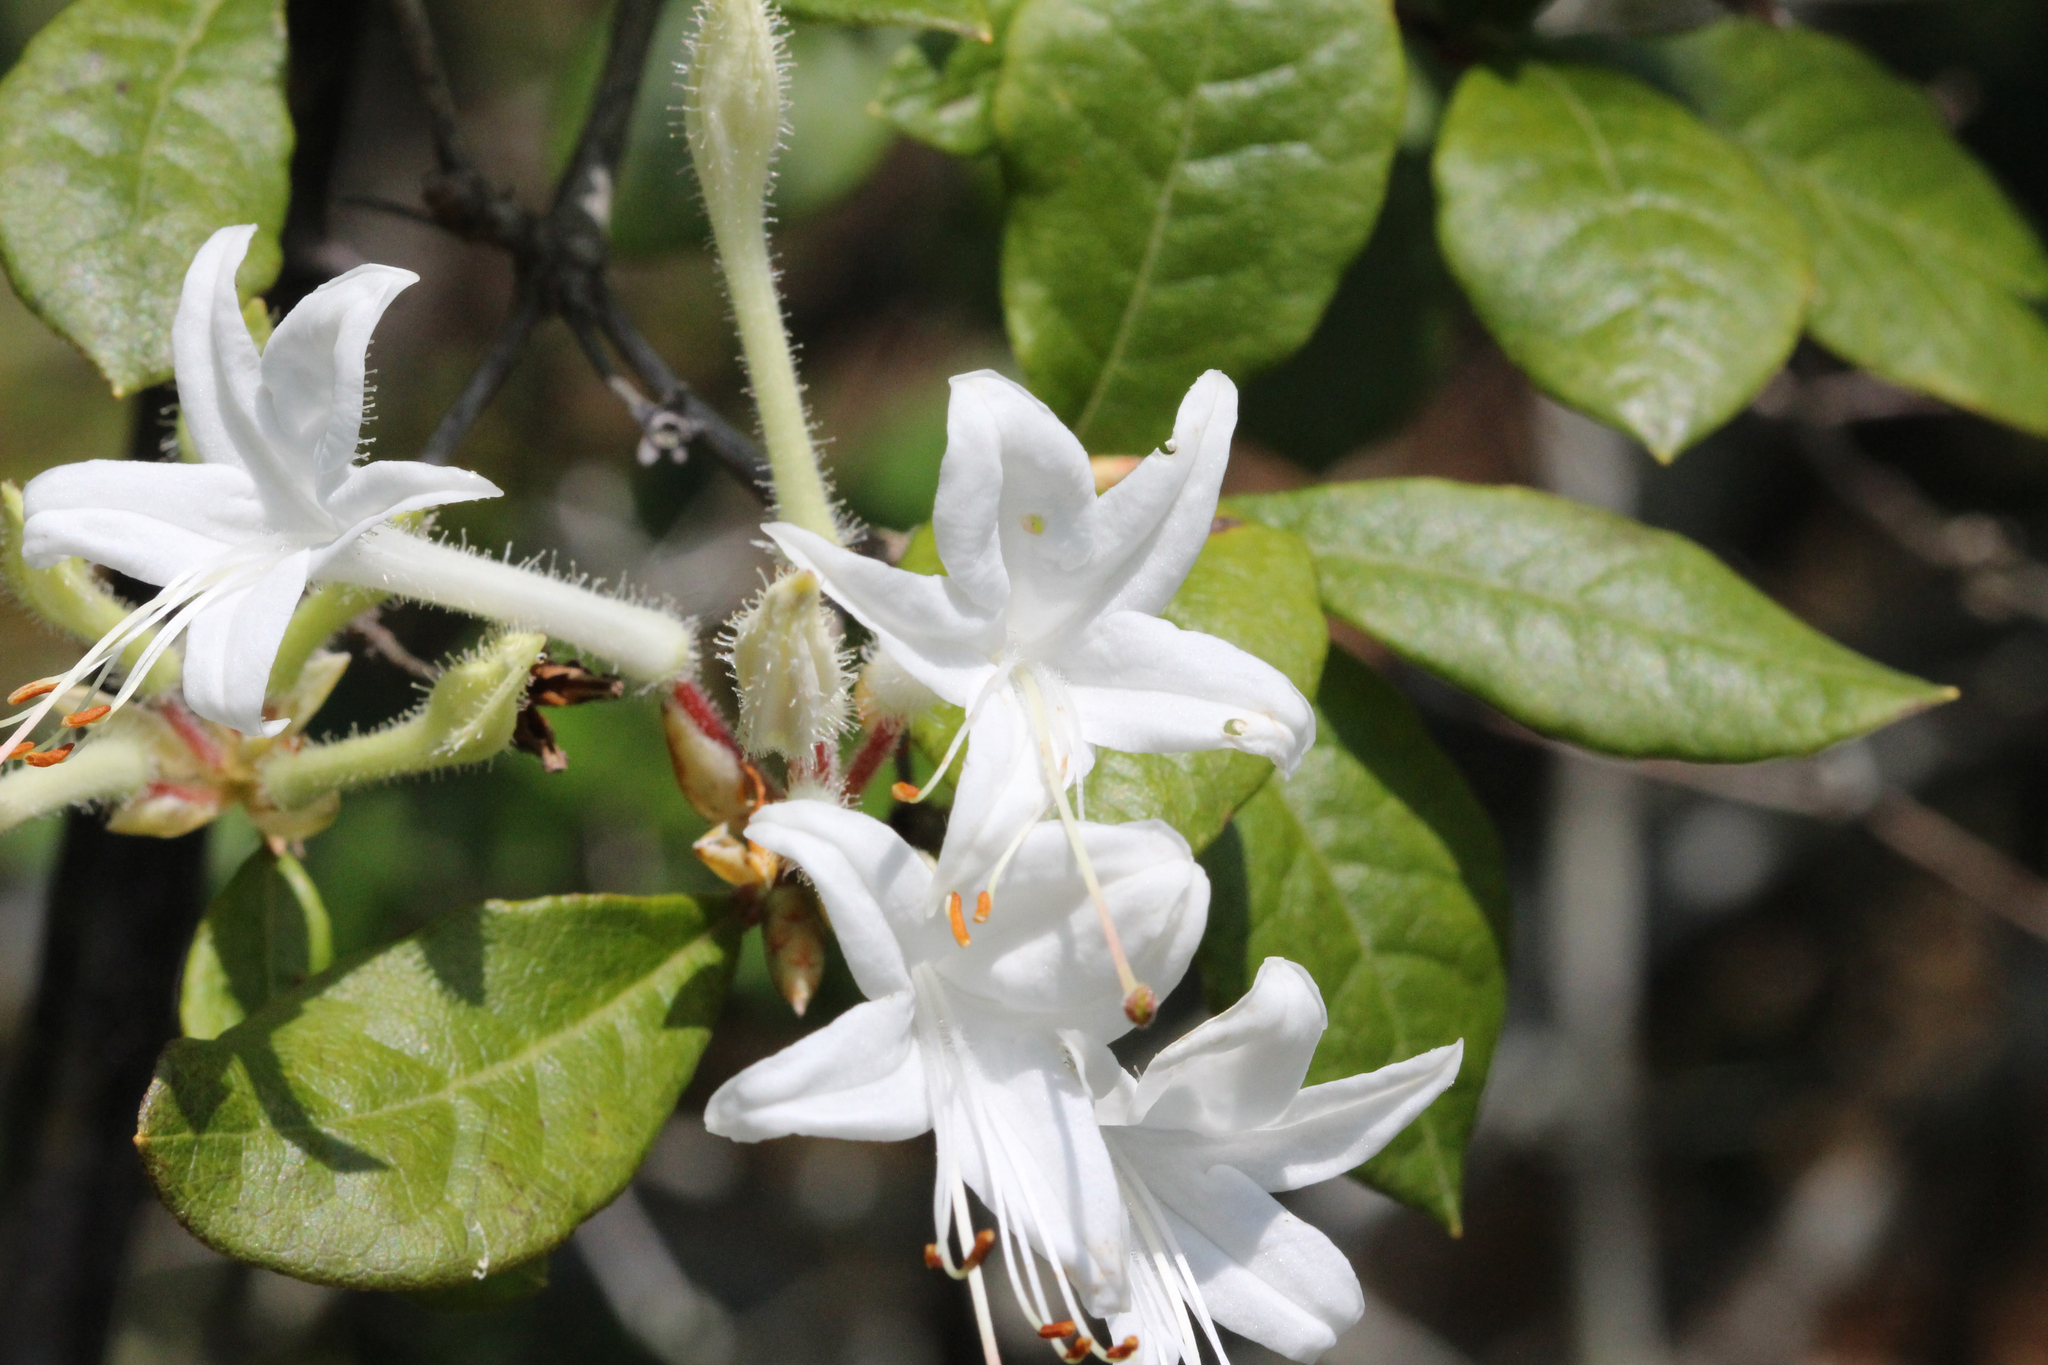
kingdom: Plantae
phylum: Tracheophyta
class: Magnoliopsida
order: Ericales
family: Ericaceae
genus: Rhododendron
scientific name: Rhododendron serrulatum
